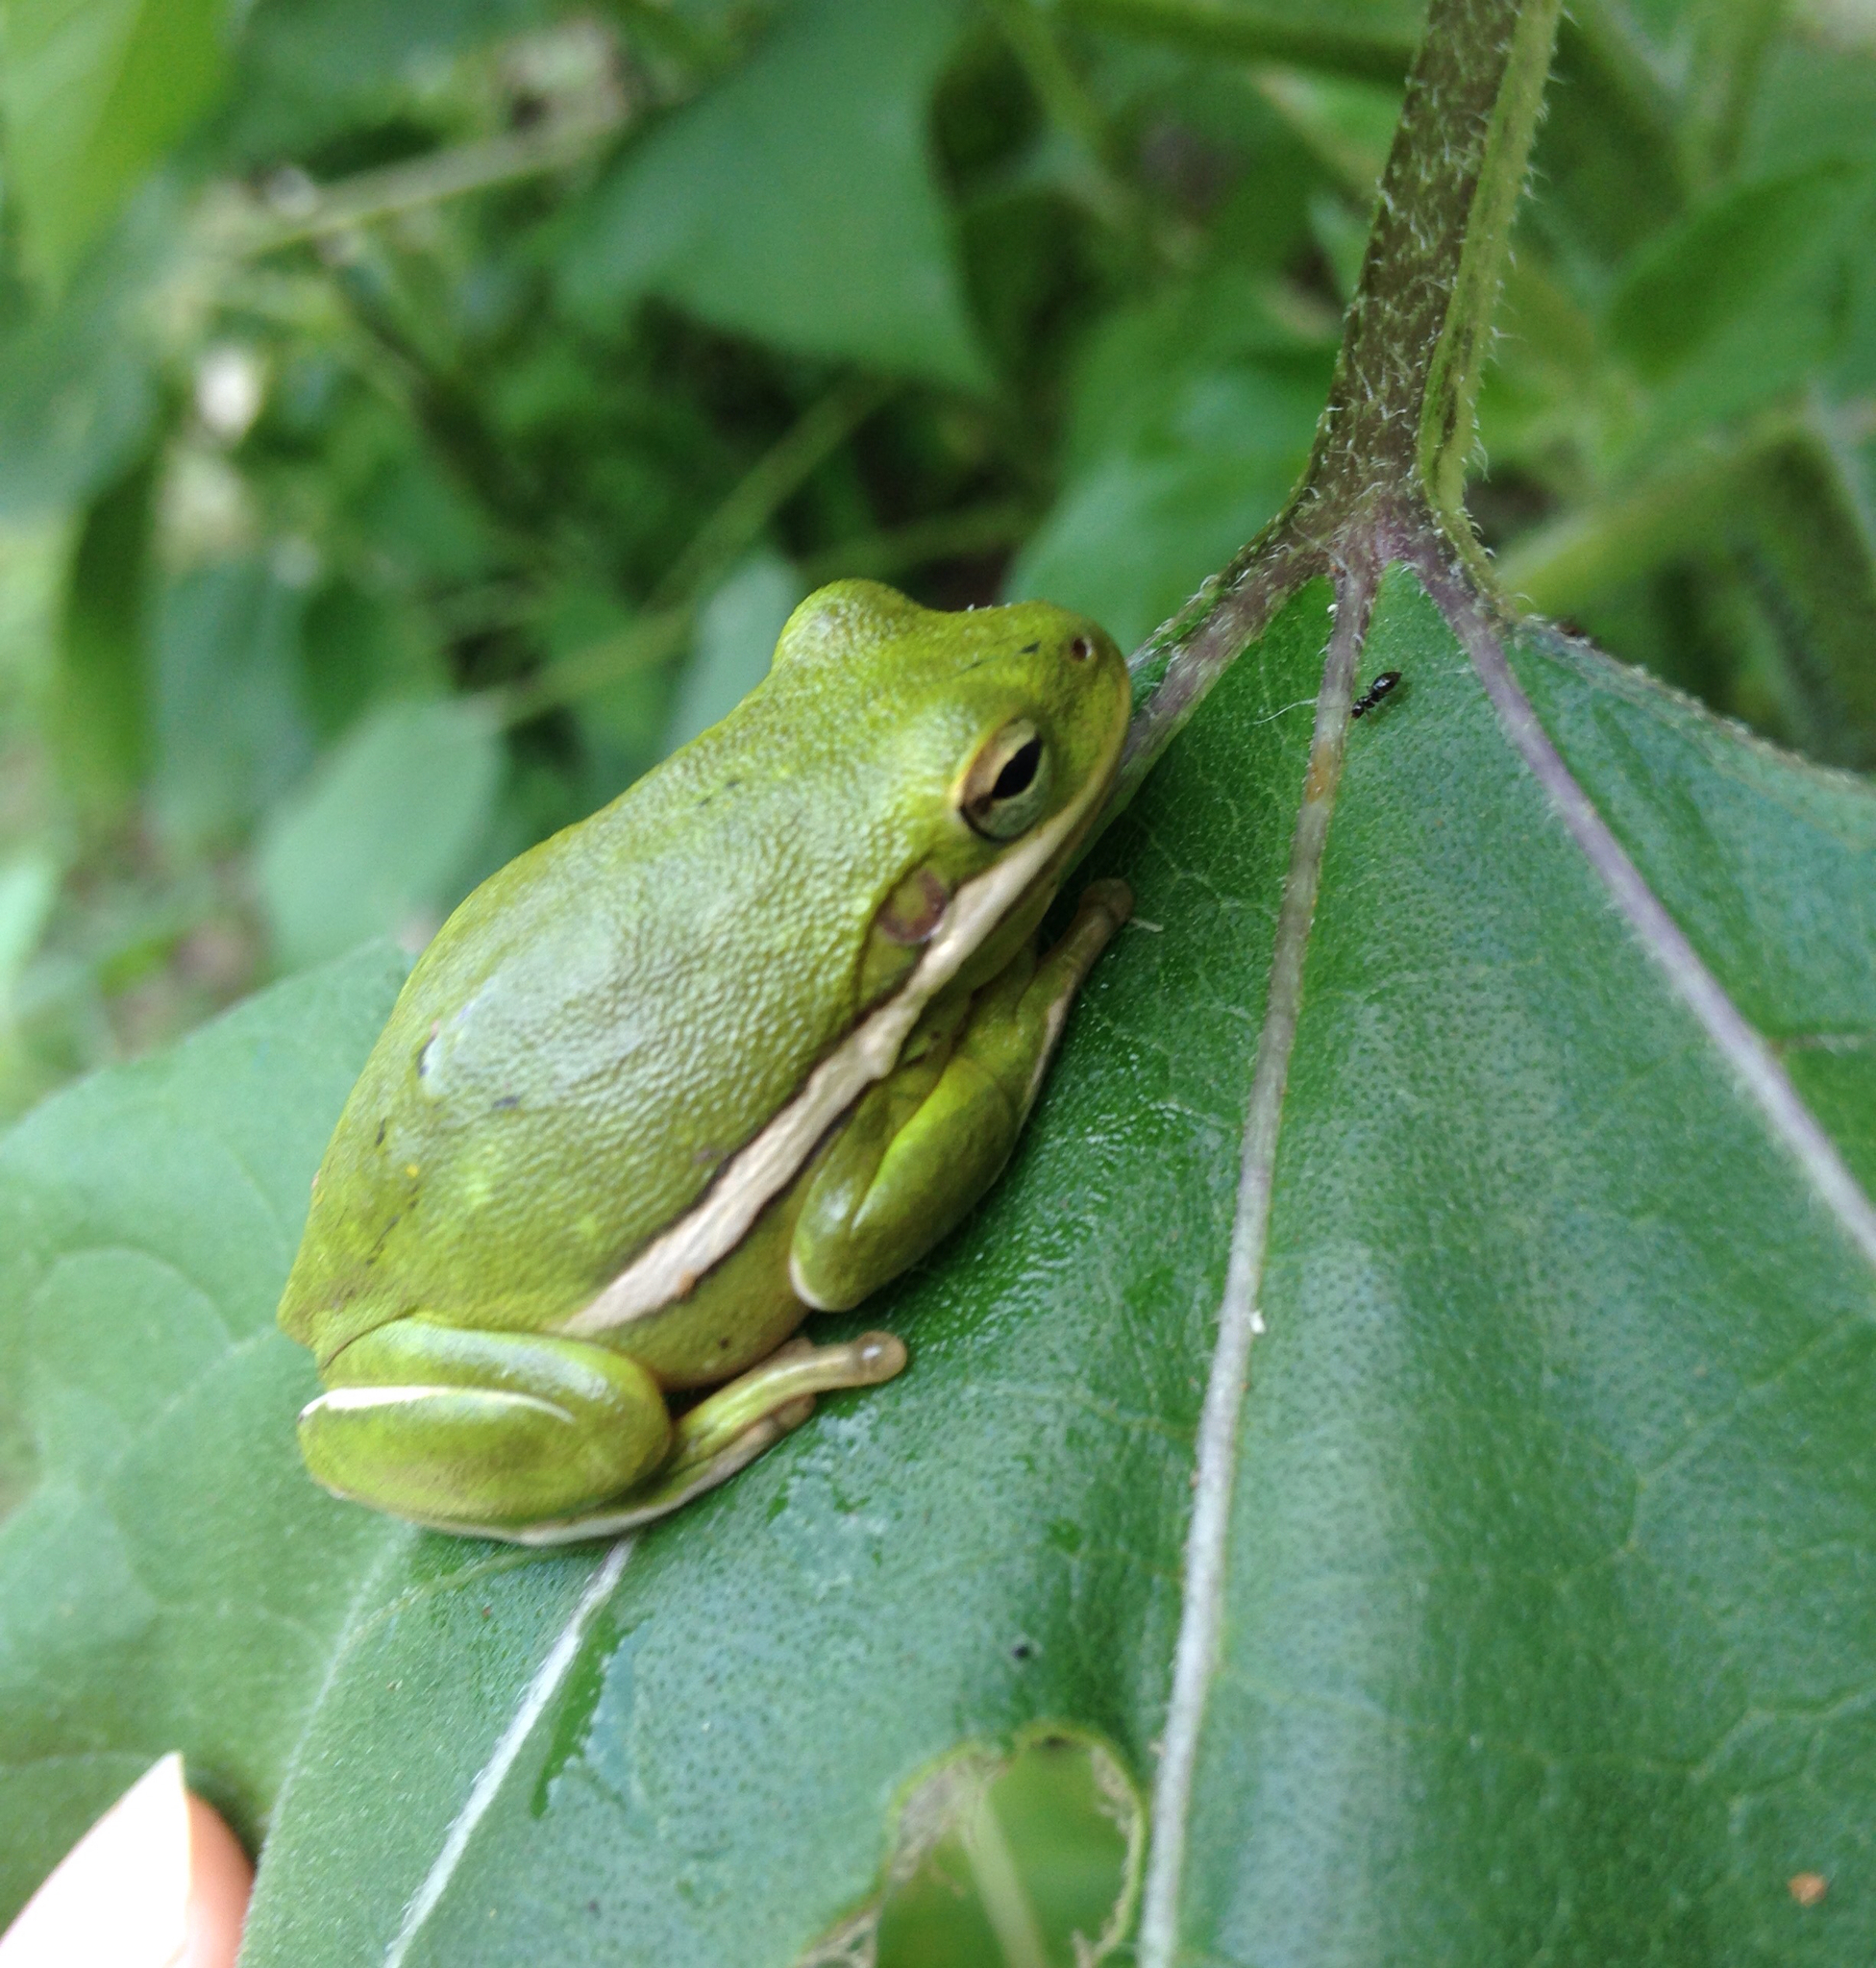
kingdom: Animalia
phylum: Chordata
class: Amphibia
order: Anura
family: Hylidae
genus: Dryophytes
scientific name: Dryophytes cinereus
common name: Green treefrog
